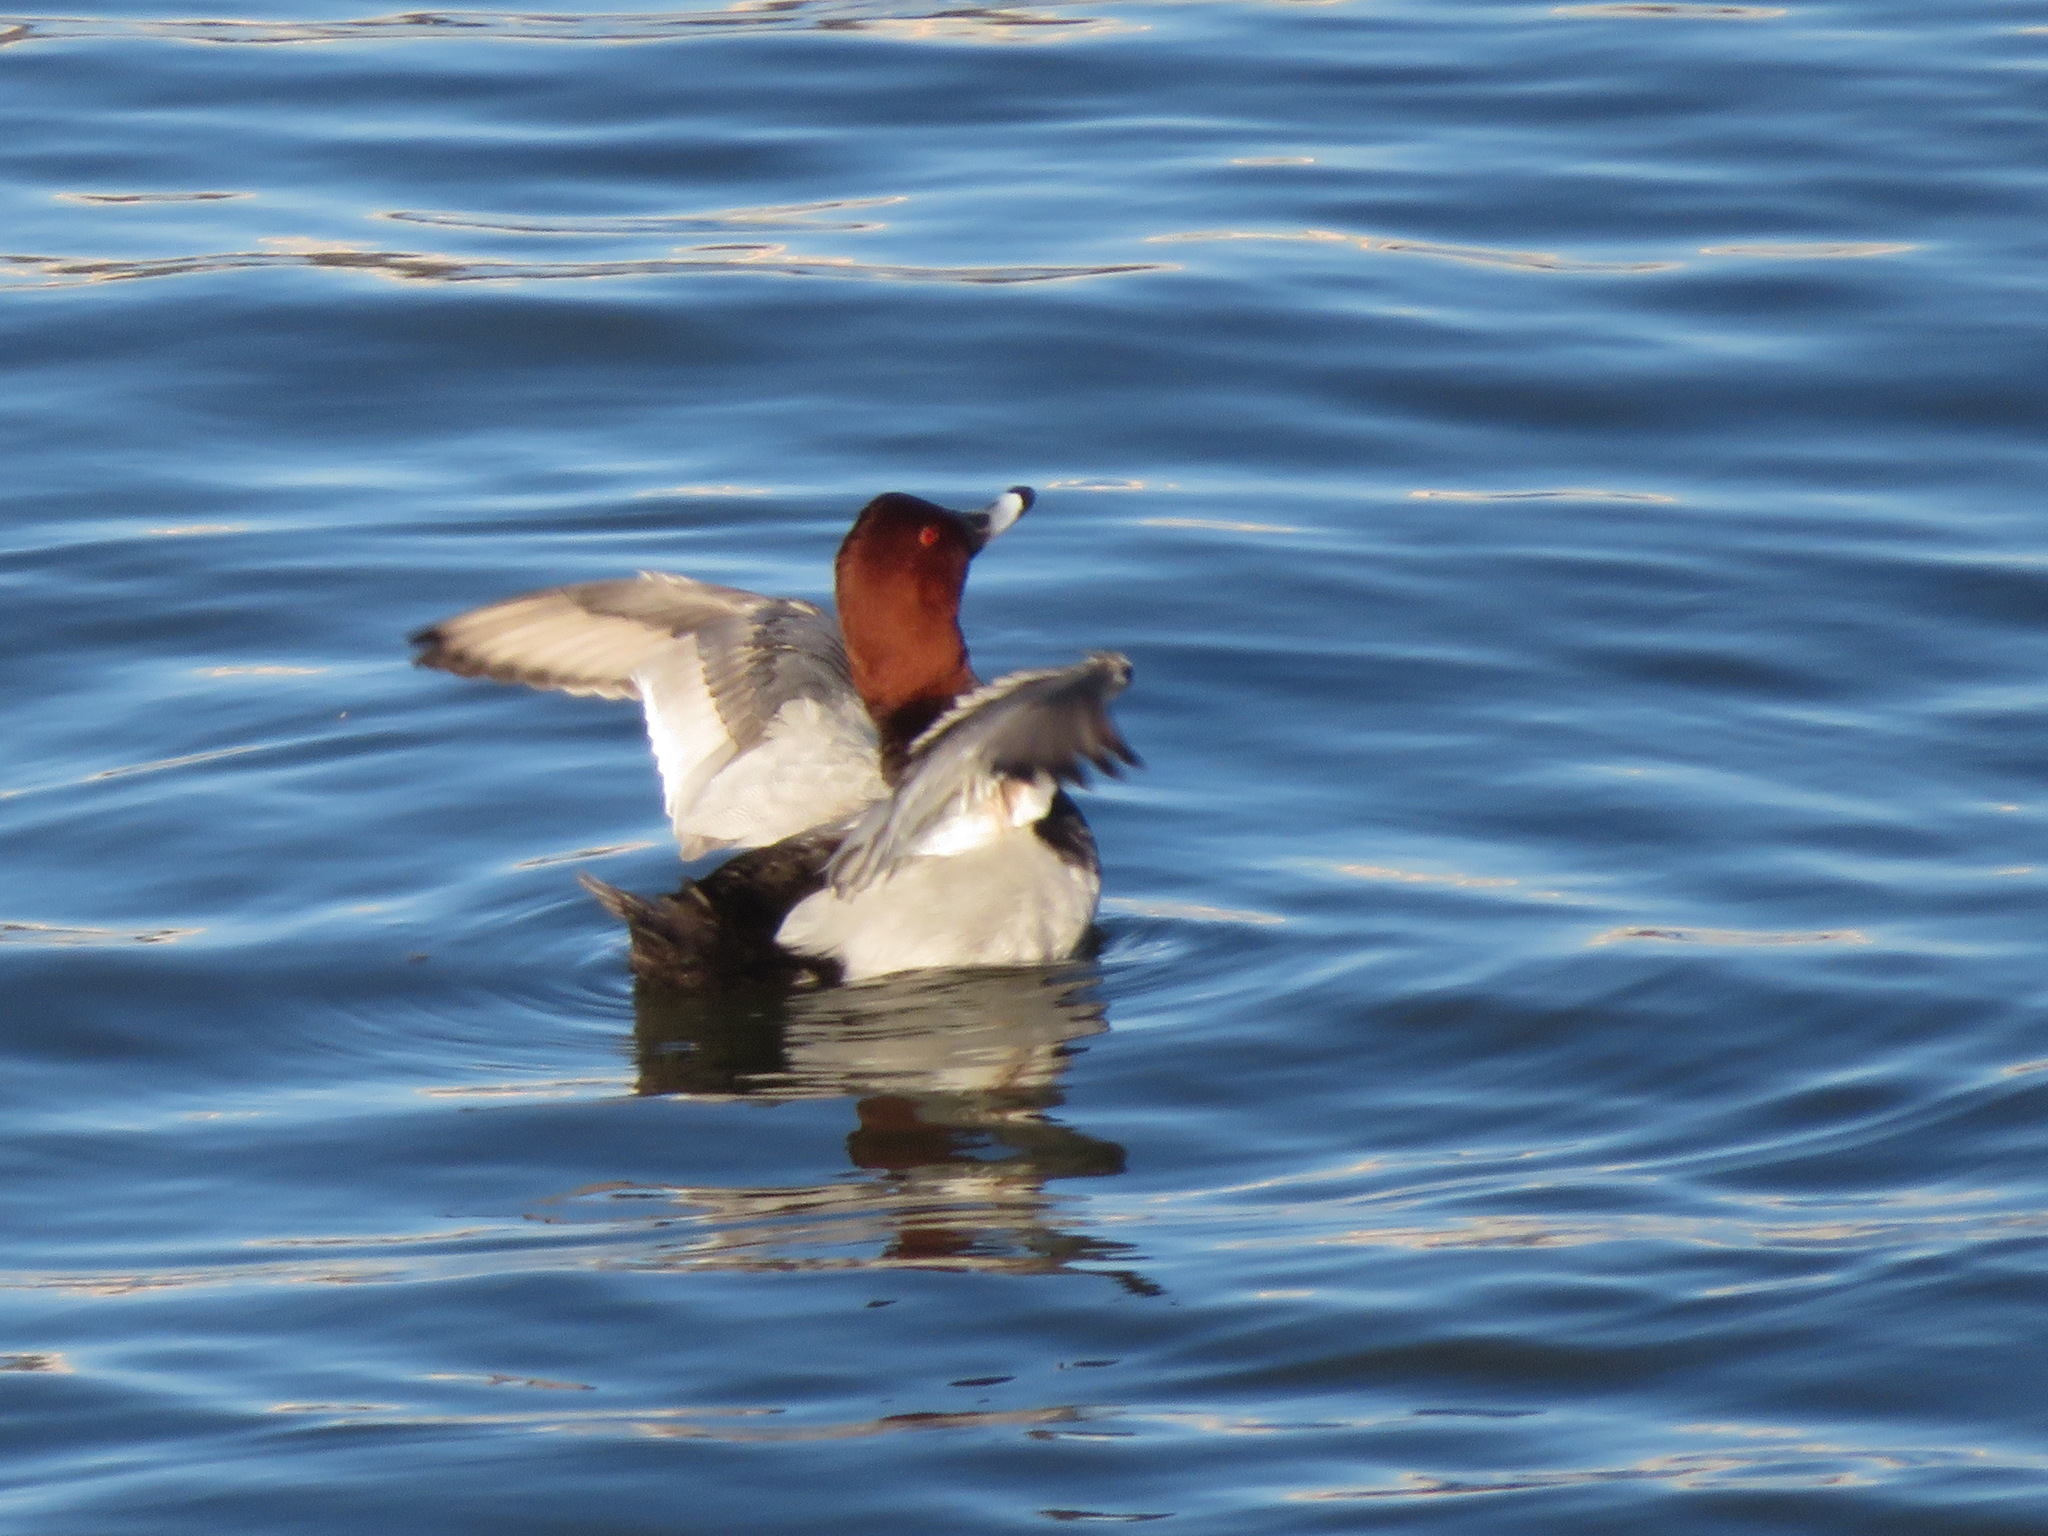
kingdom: Animalia
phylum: Chordata
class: Aves
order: Anseriformes
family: Anatidae
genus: Aythya
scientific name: Aythya ferina
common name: Common pochard
